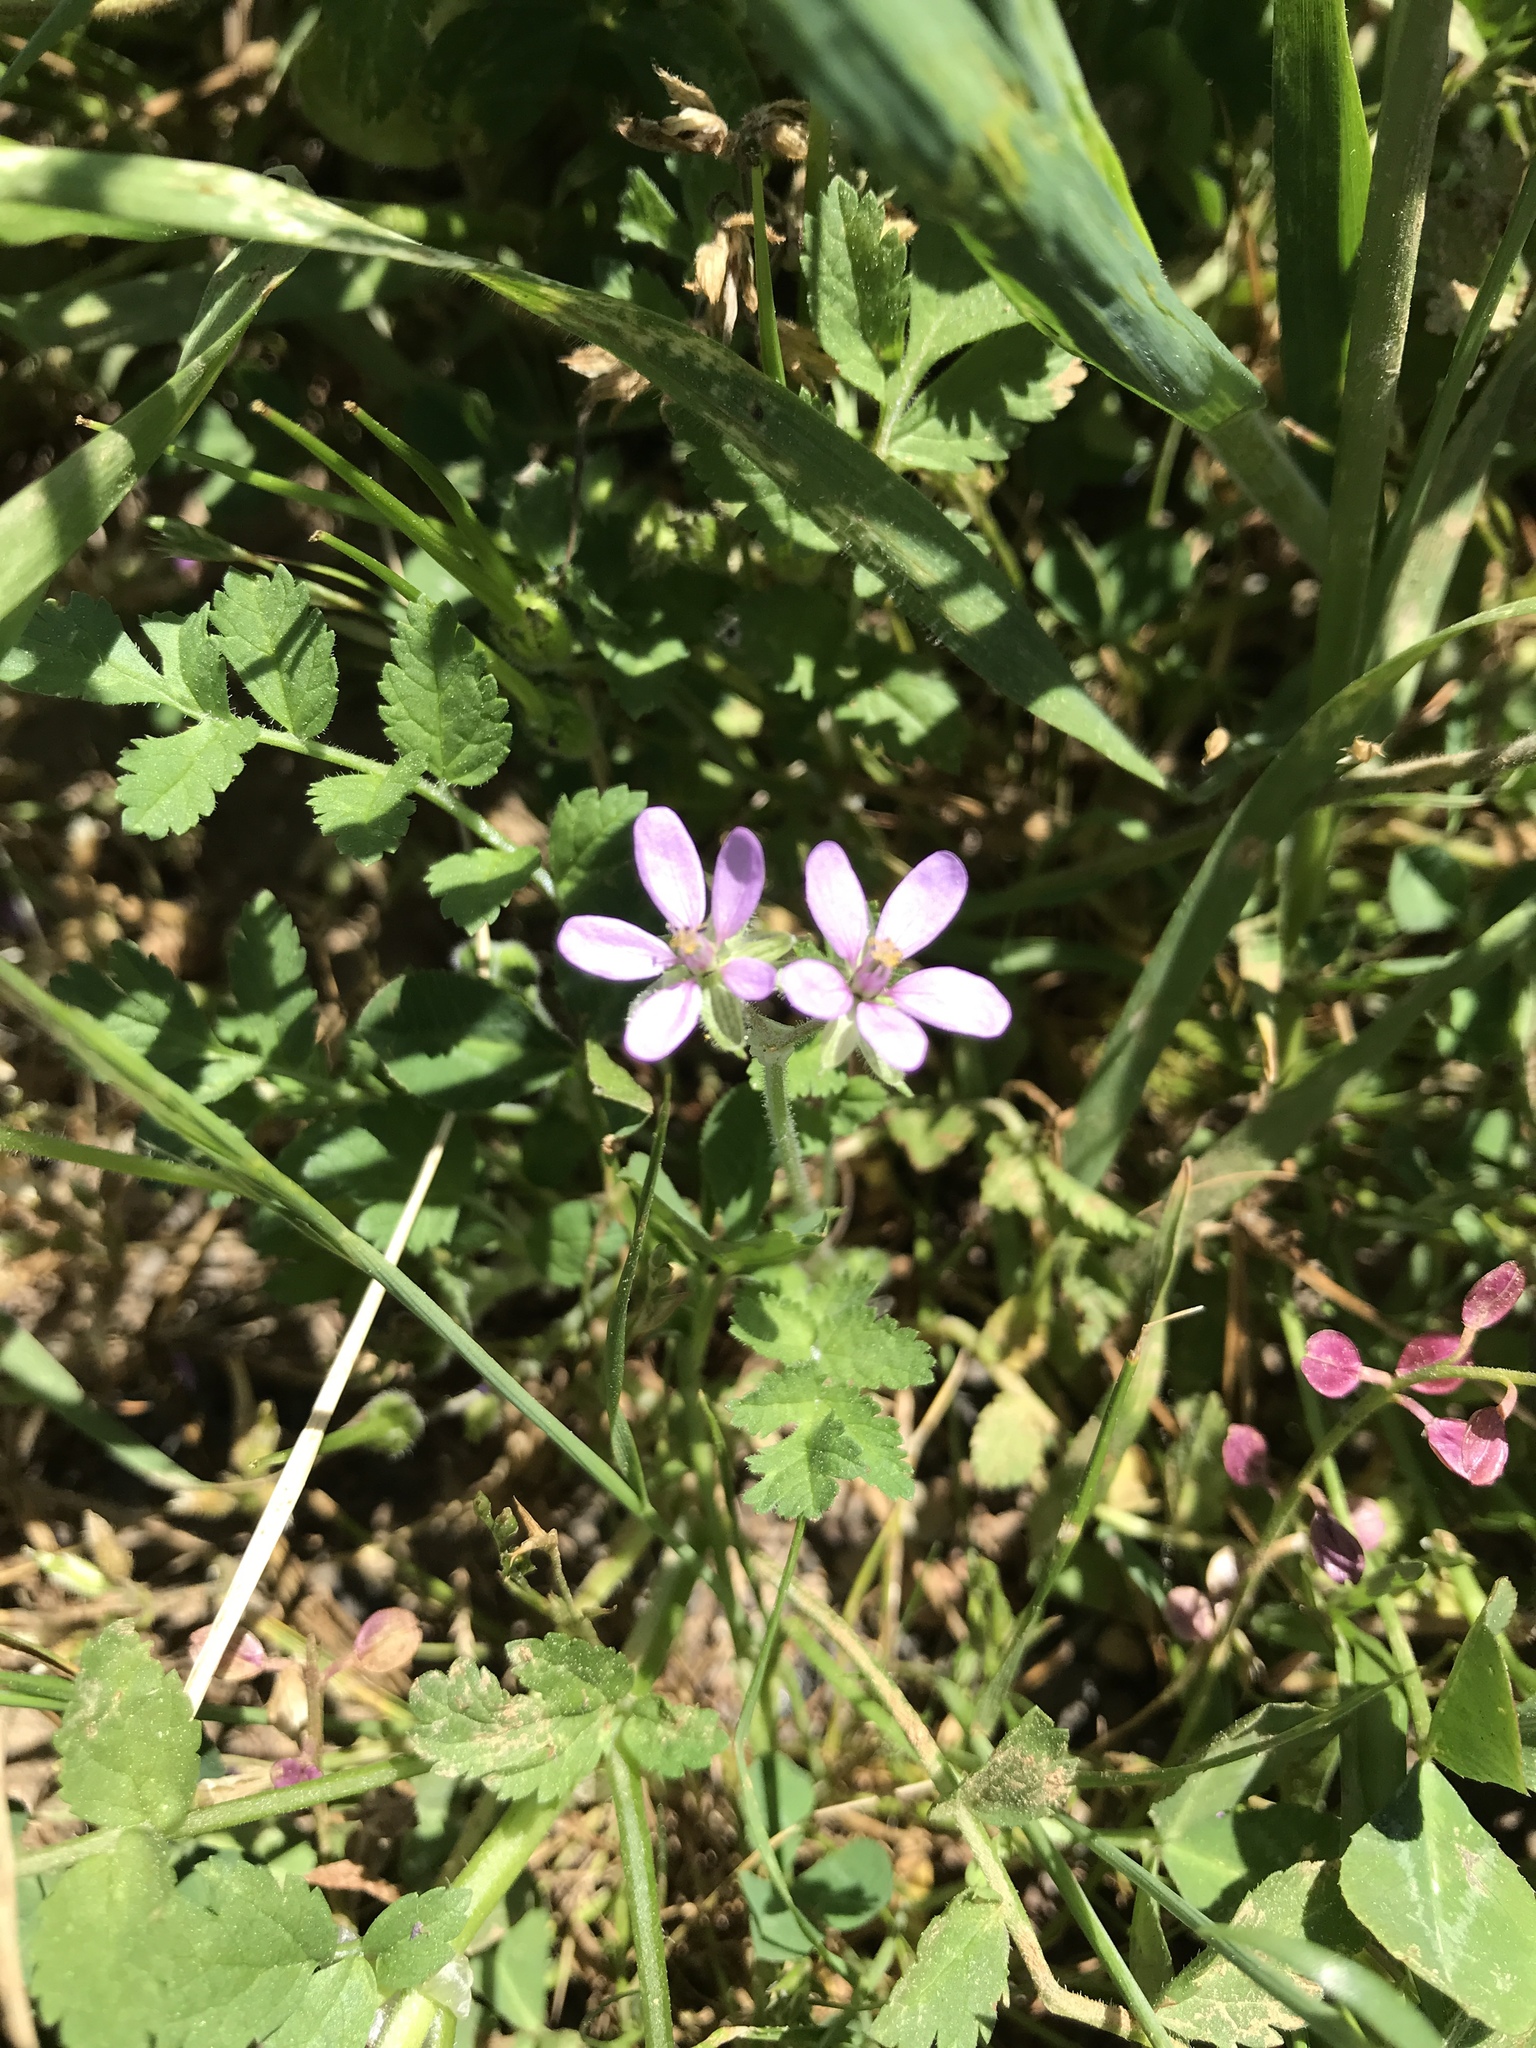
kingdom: Plantae
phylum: Tracheophyta
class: Magnoliopsida
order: Geraniales
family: Geraniaceae
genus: Erodium
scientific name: Erodium moschatum
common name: Musk stork's-bill
